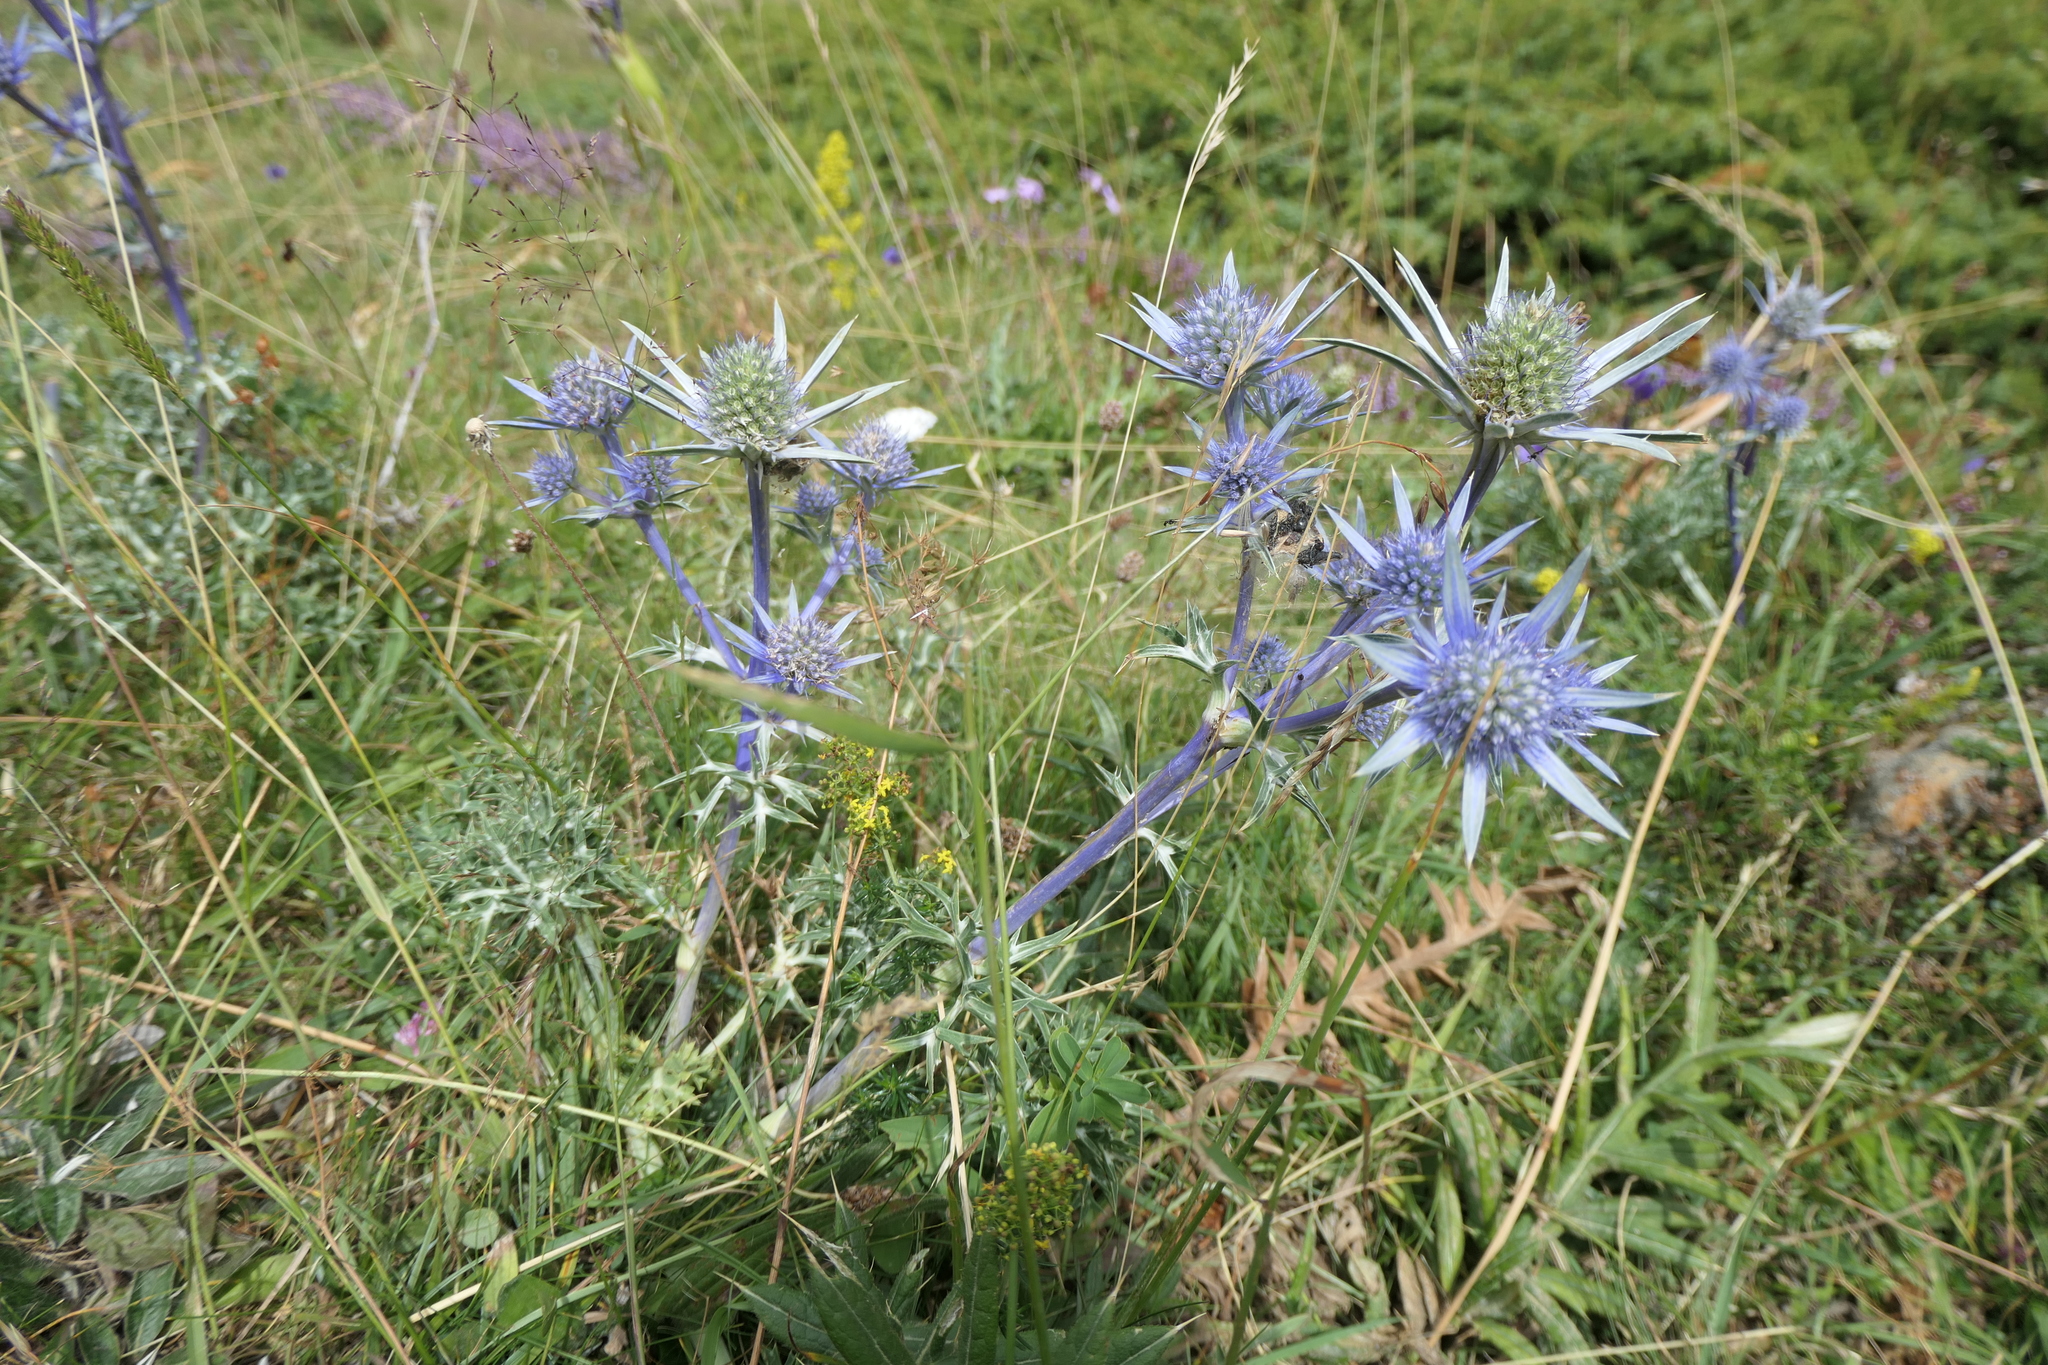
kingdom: Plantae
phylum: Tracheophyta
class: Magnoliopsida
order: Apiales
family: Apiaceae
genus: Eryngium
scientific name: Eryngium bourgatii
